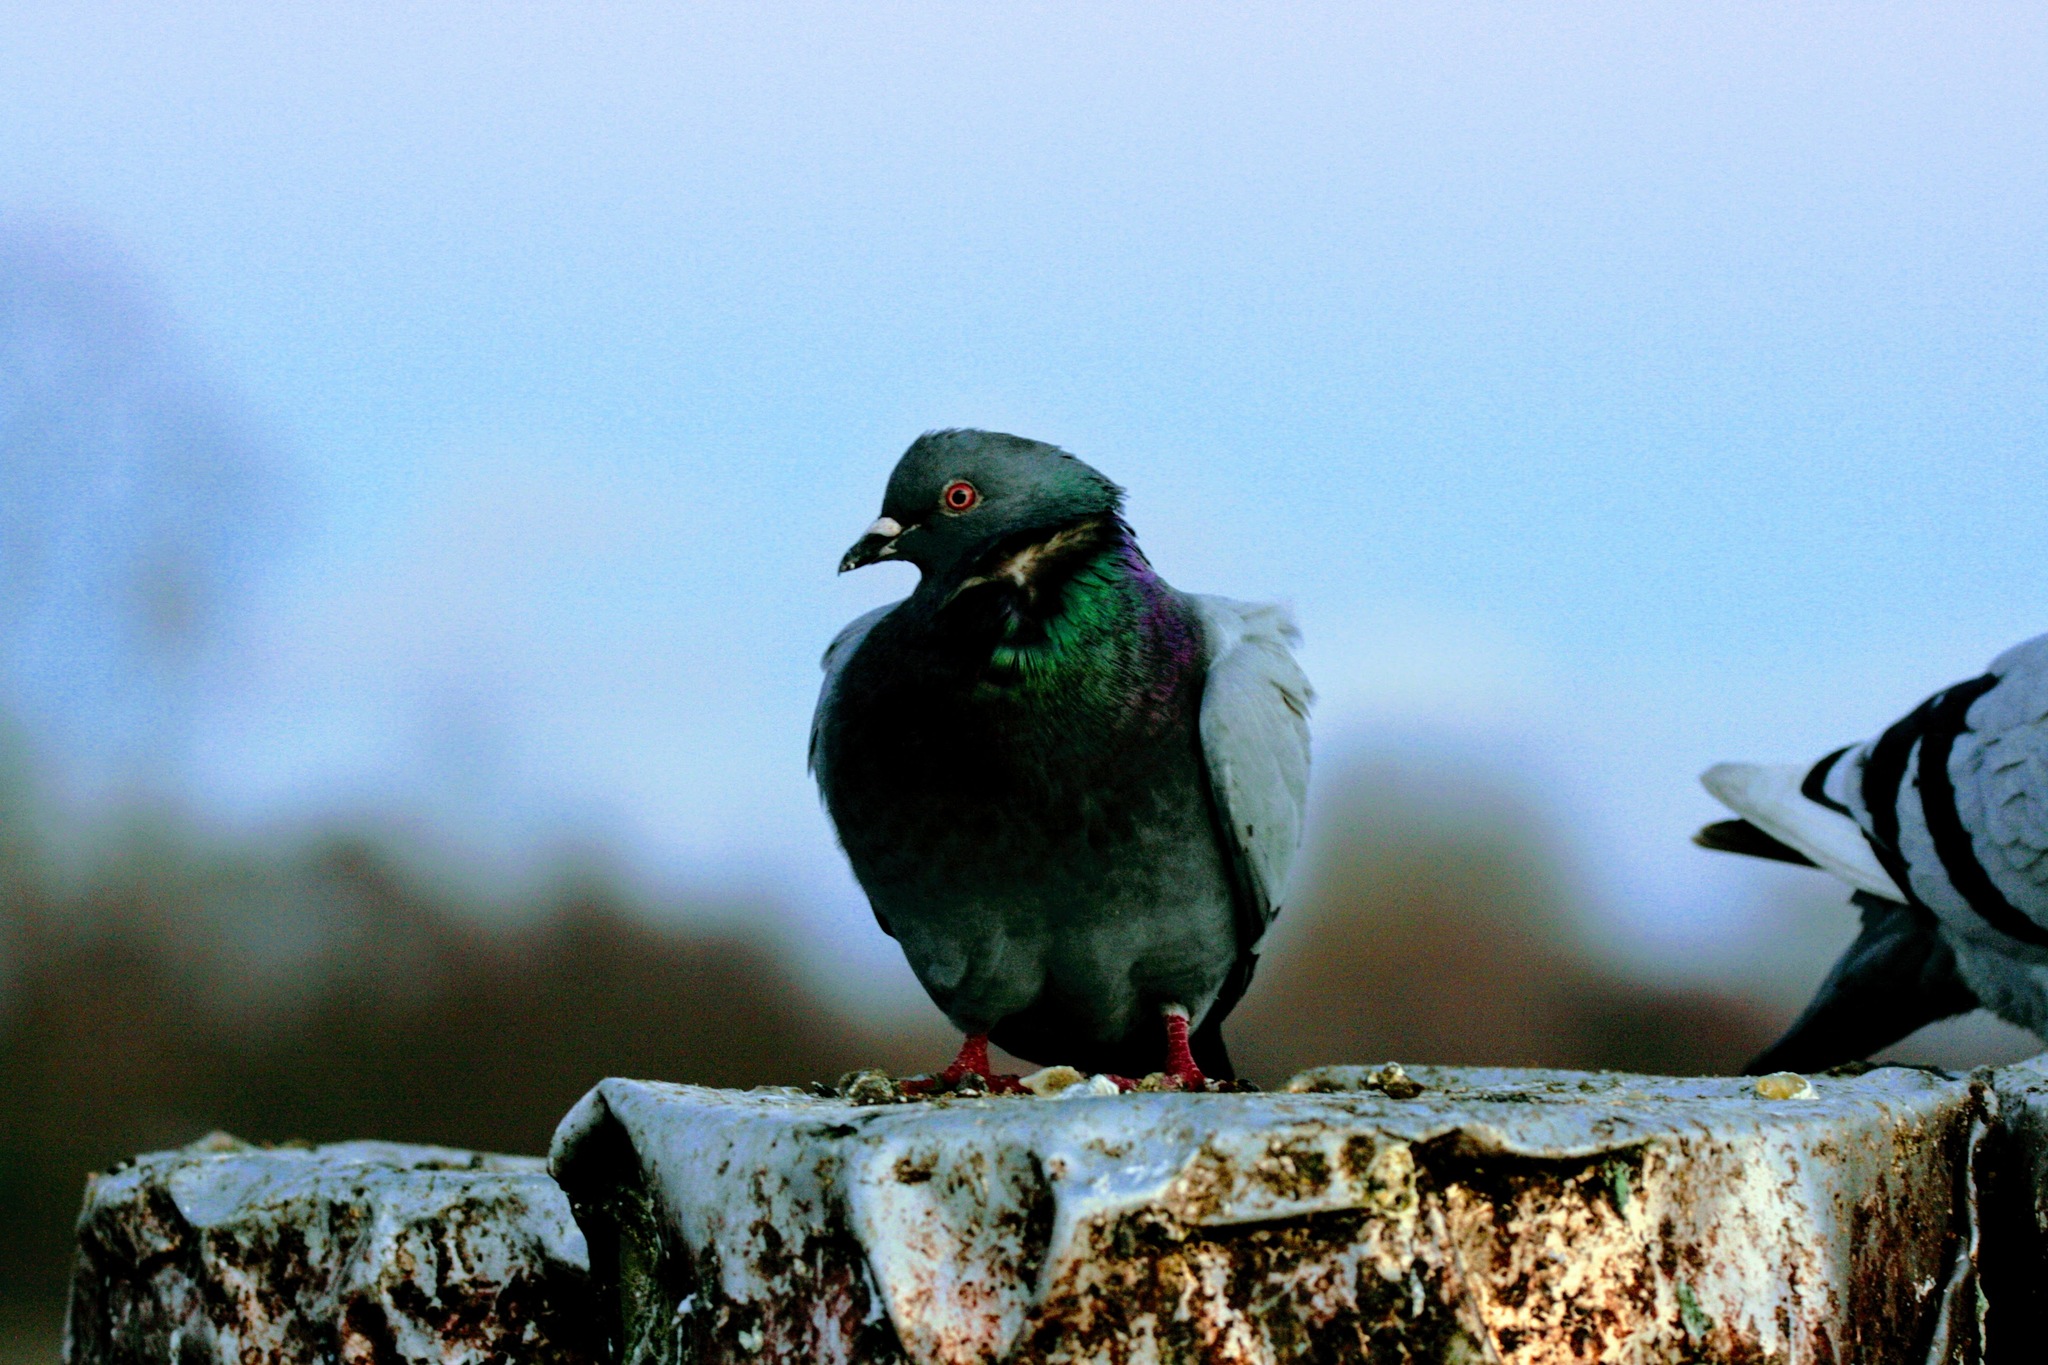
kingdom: Animalia
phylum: Chordata
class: Aves
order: Columbiformes
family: Columbidae
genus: Columba
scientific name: Columba livia
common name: Rock pigeon
